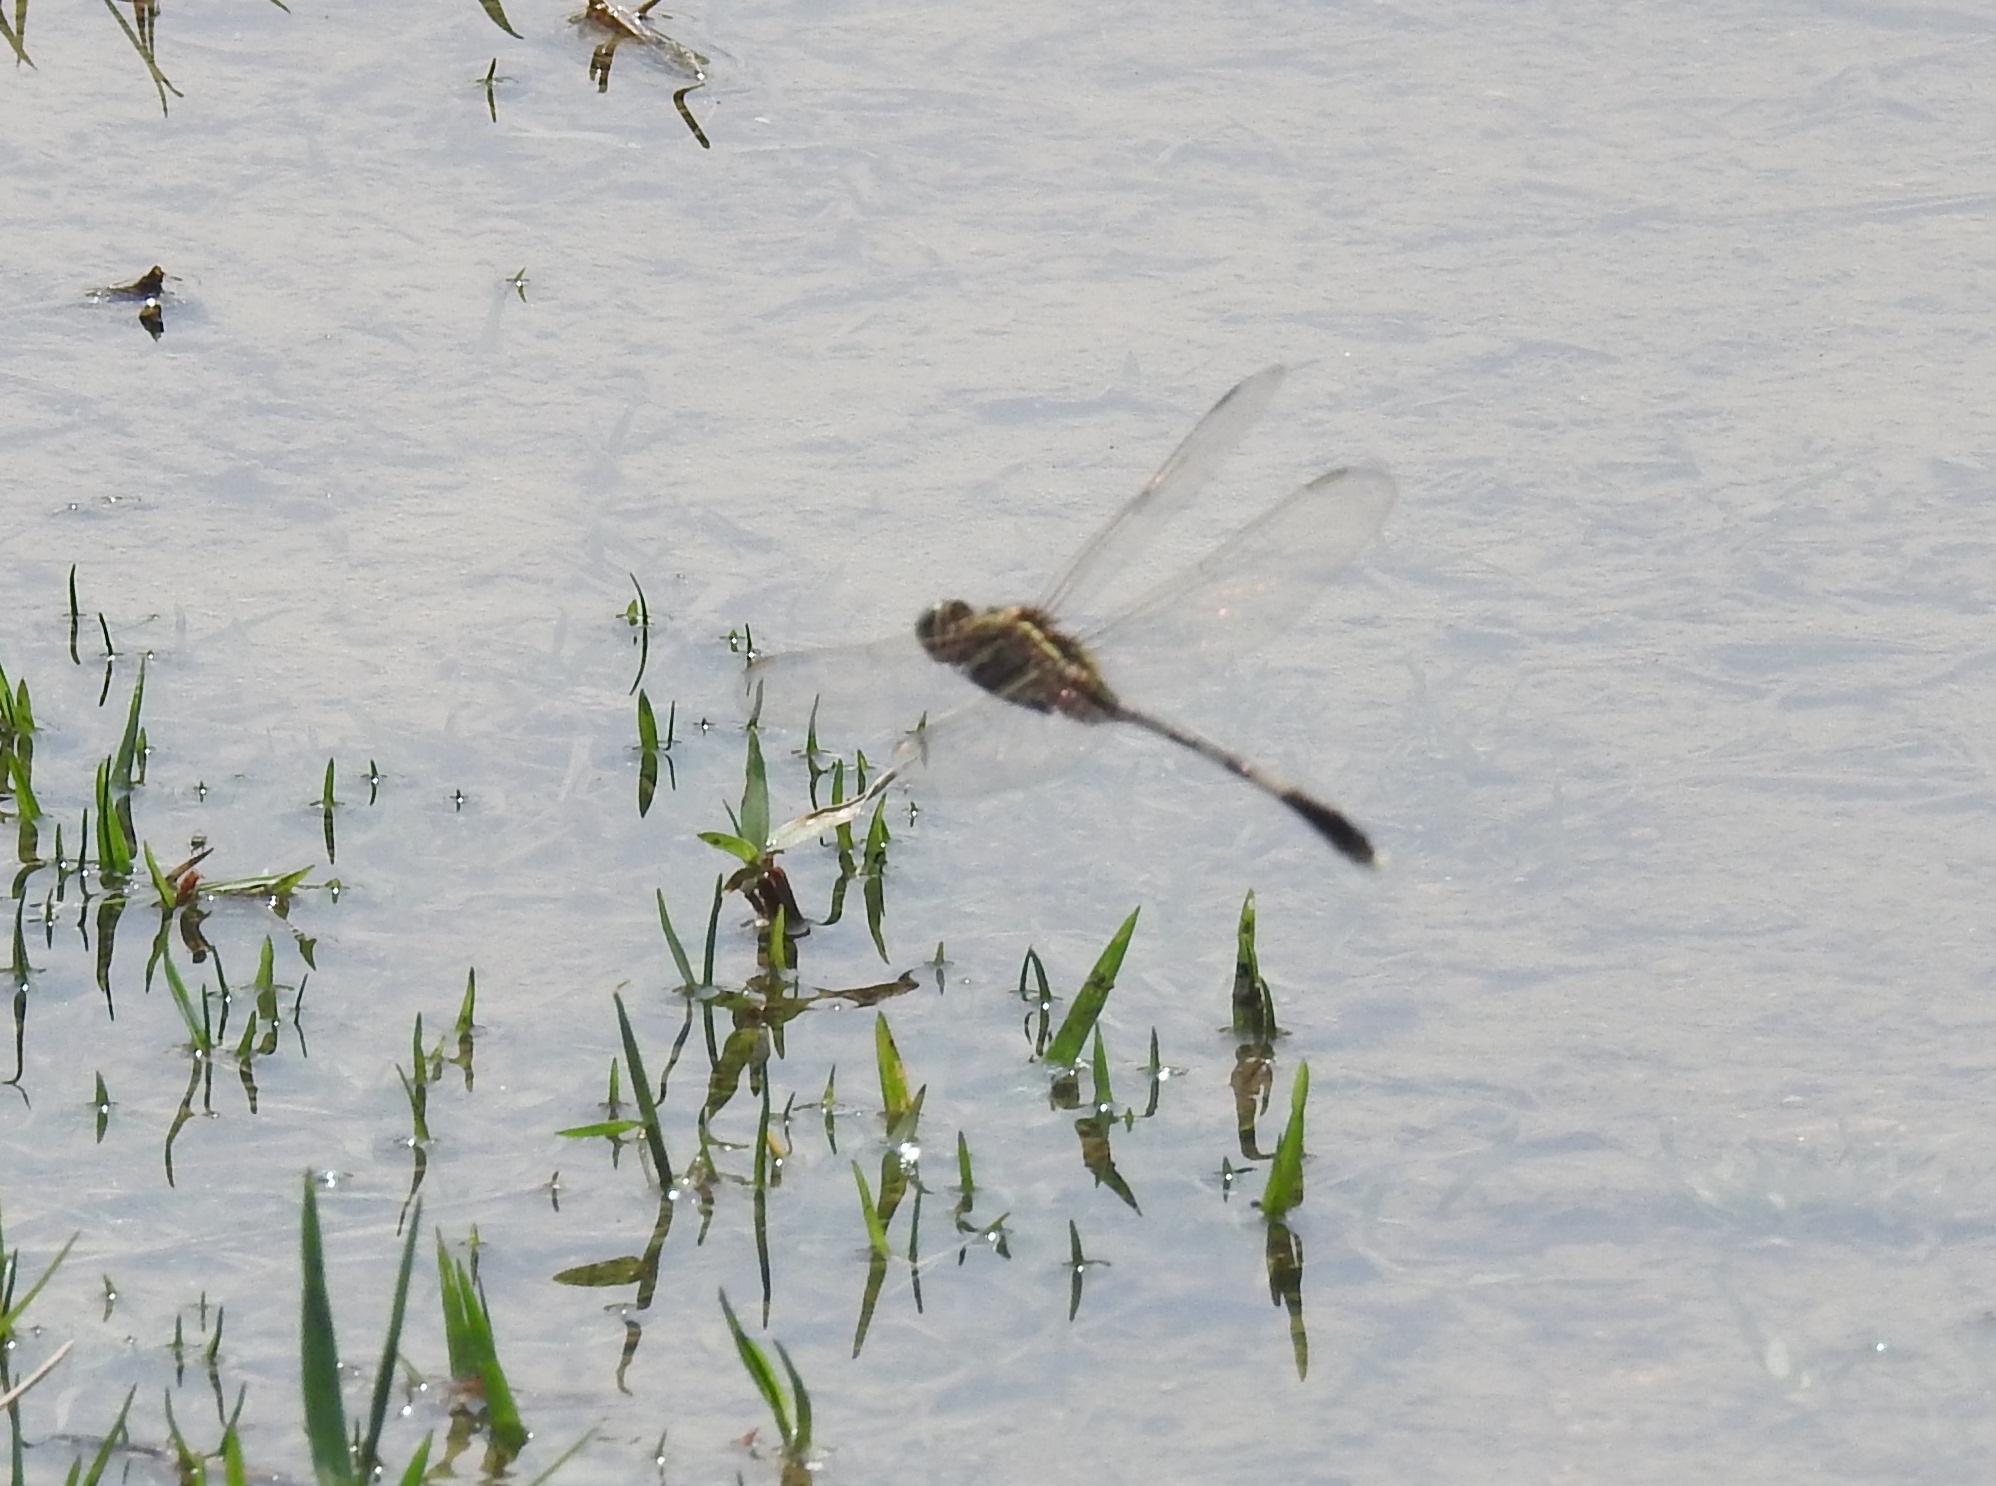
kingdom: Animalia
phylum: Arthropoda
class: Insecta
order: Odonata
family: Libellulidae
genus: Orthetrum
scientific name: Orthetrum sabina
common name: Slender skimmer
